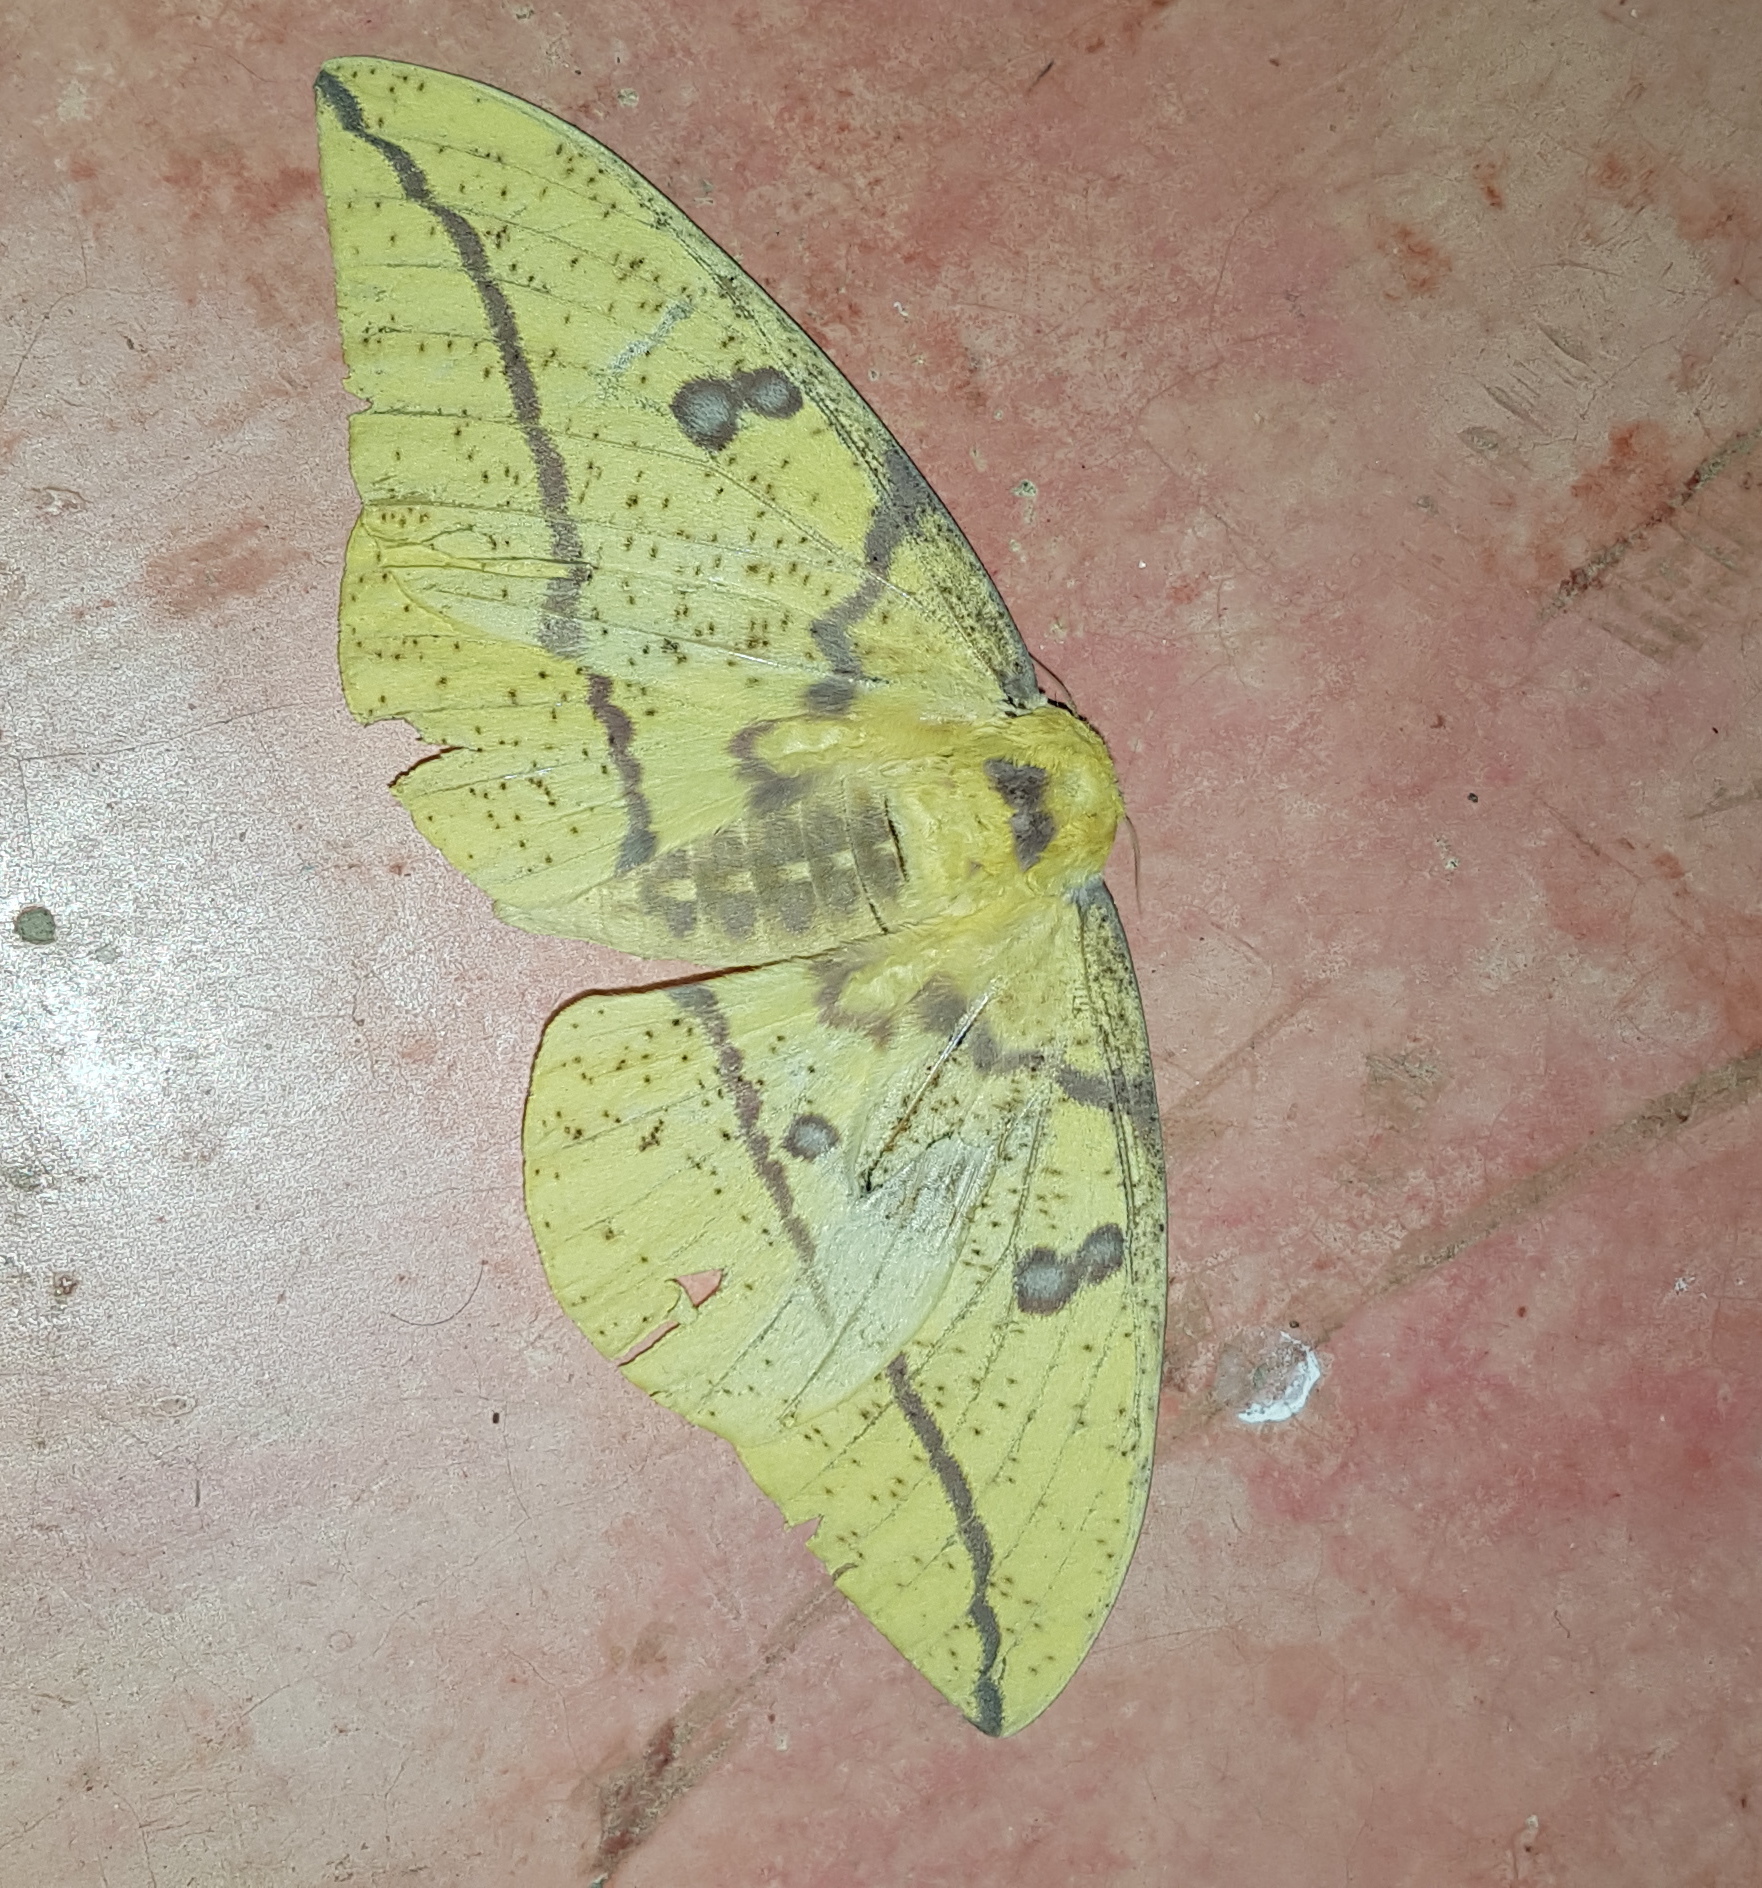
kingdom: Animalia
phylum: Arthropoda
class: Insecta
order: Lepidoptera
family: Saturniidae
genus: Eacles
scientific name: Eacles imperialis
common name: Imperial moth
